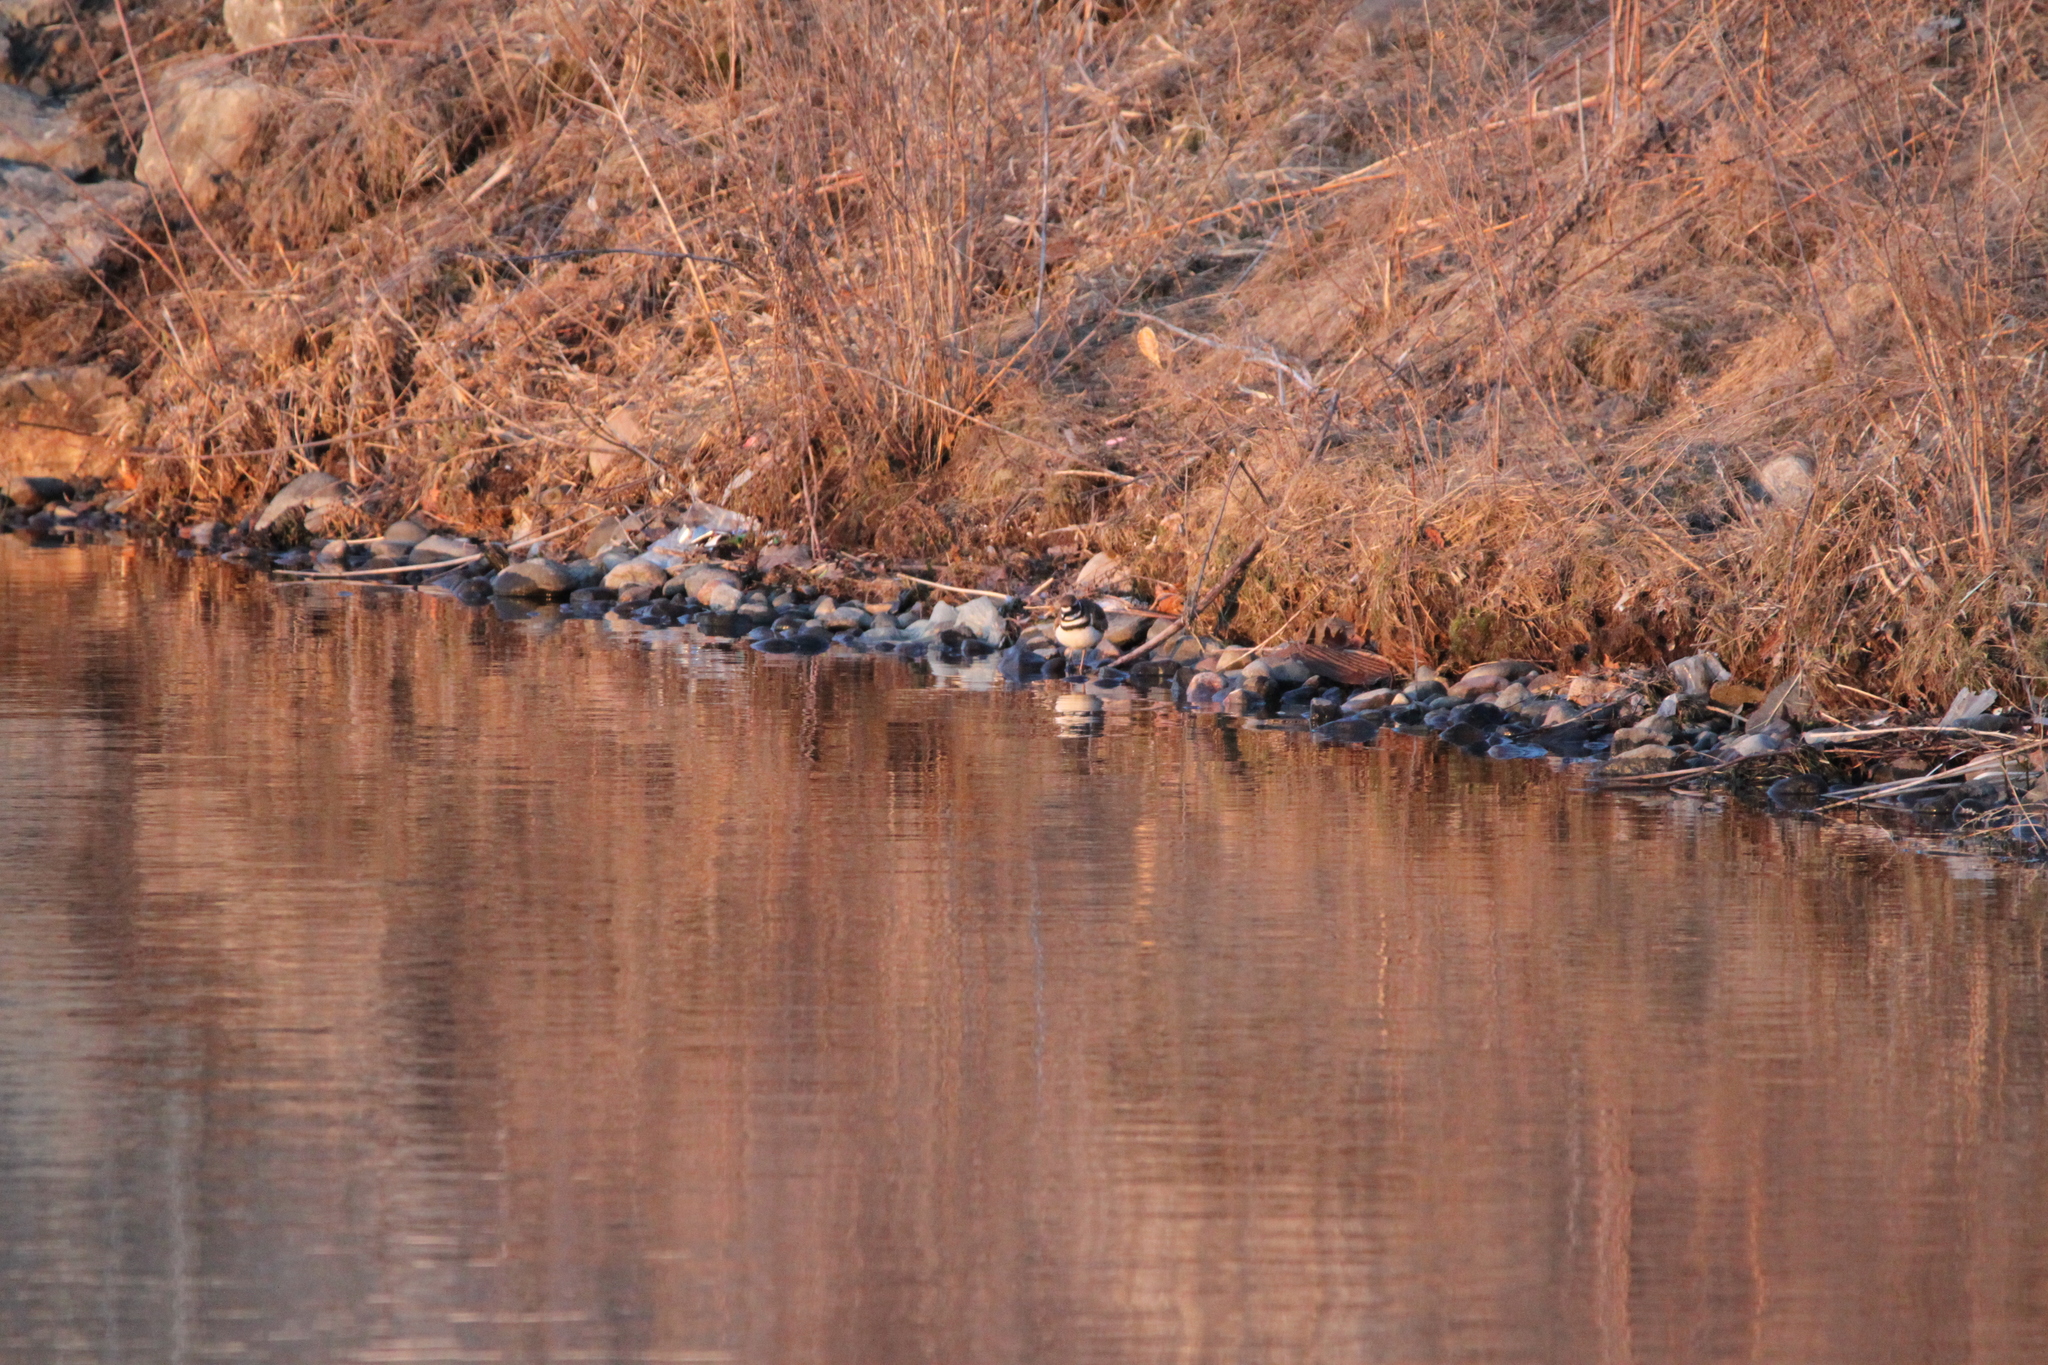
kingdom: Animalia
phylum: Chordata
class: Aves
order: Charadriiformes
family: Charadriidae
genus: Charadrius
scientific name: Charadrius vociferus
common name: Killdeer
